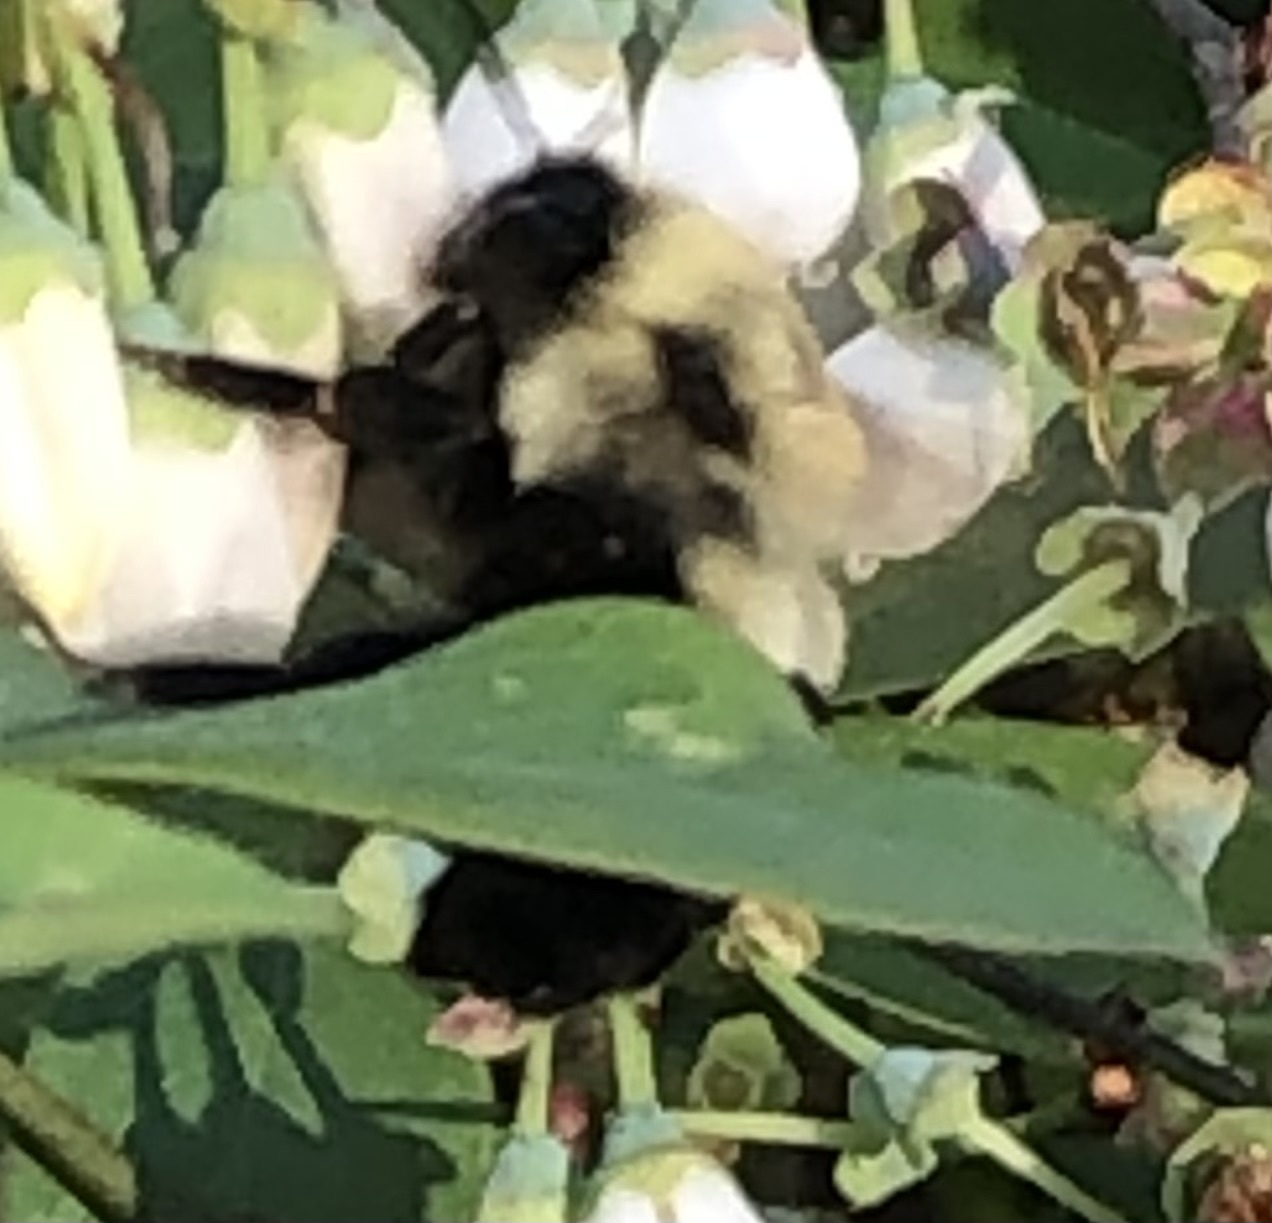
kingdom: Animalia
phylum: Arthropoda
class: Insecta
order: Hymenoptera
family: Apidae
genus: Bombus
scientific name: Bombus impatiens
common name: Common eastern bumble bee
